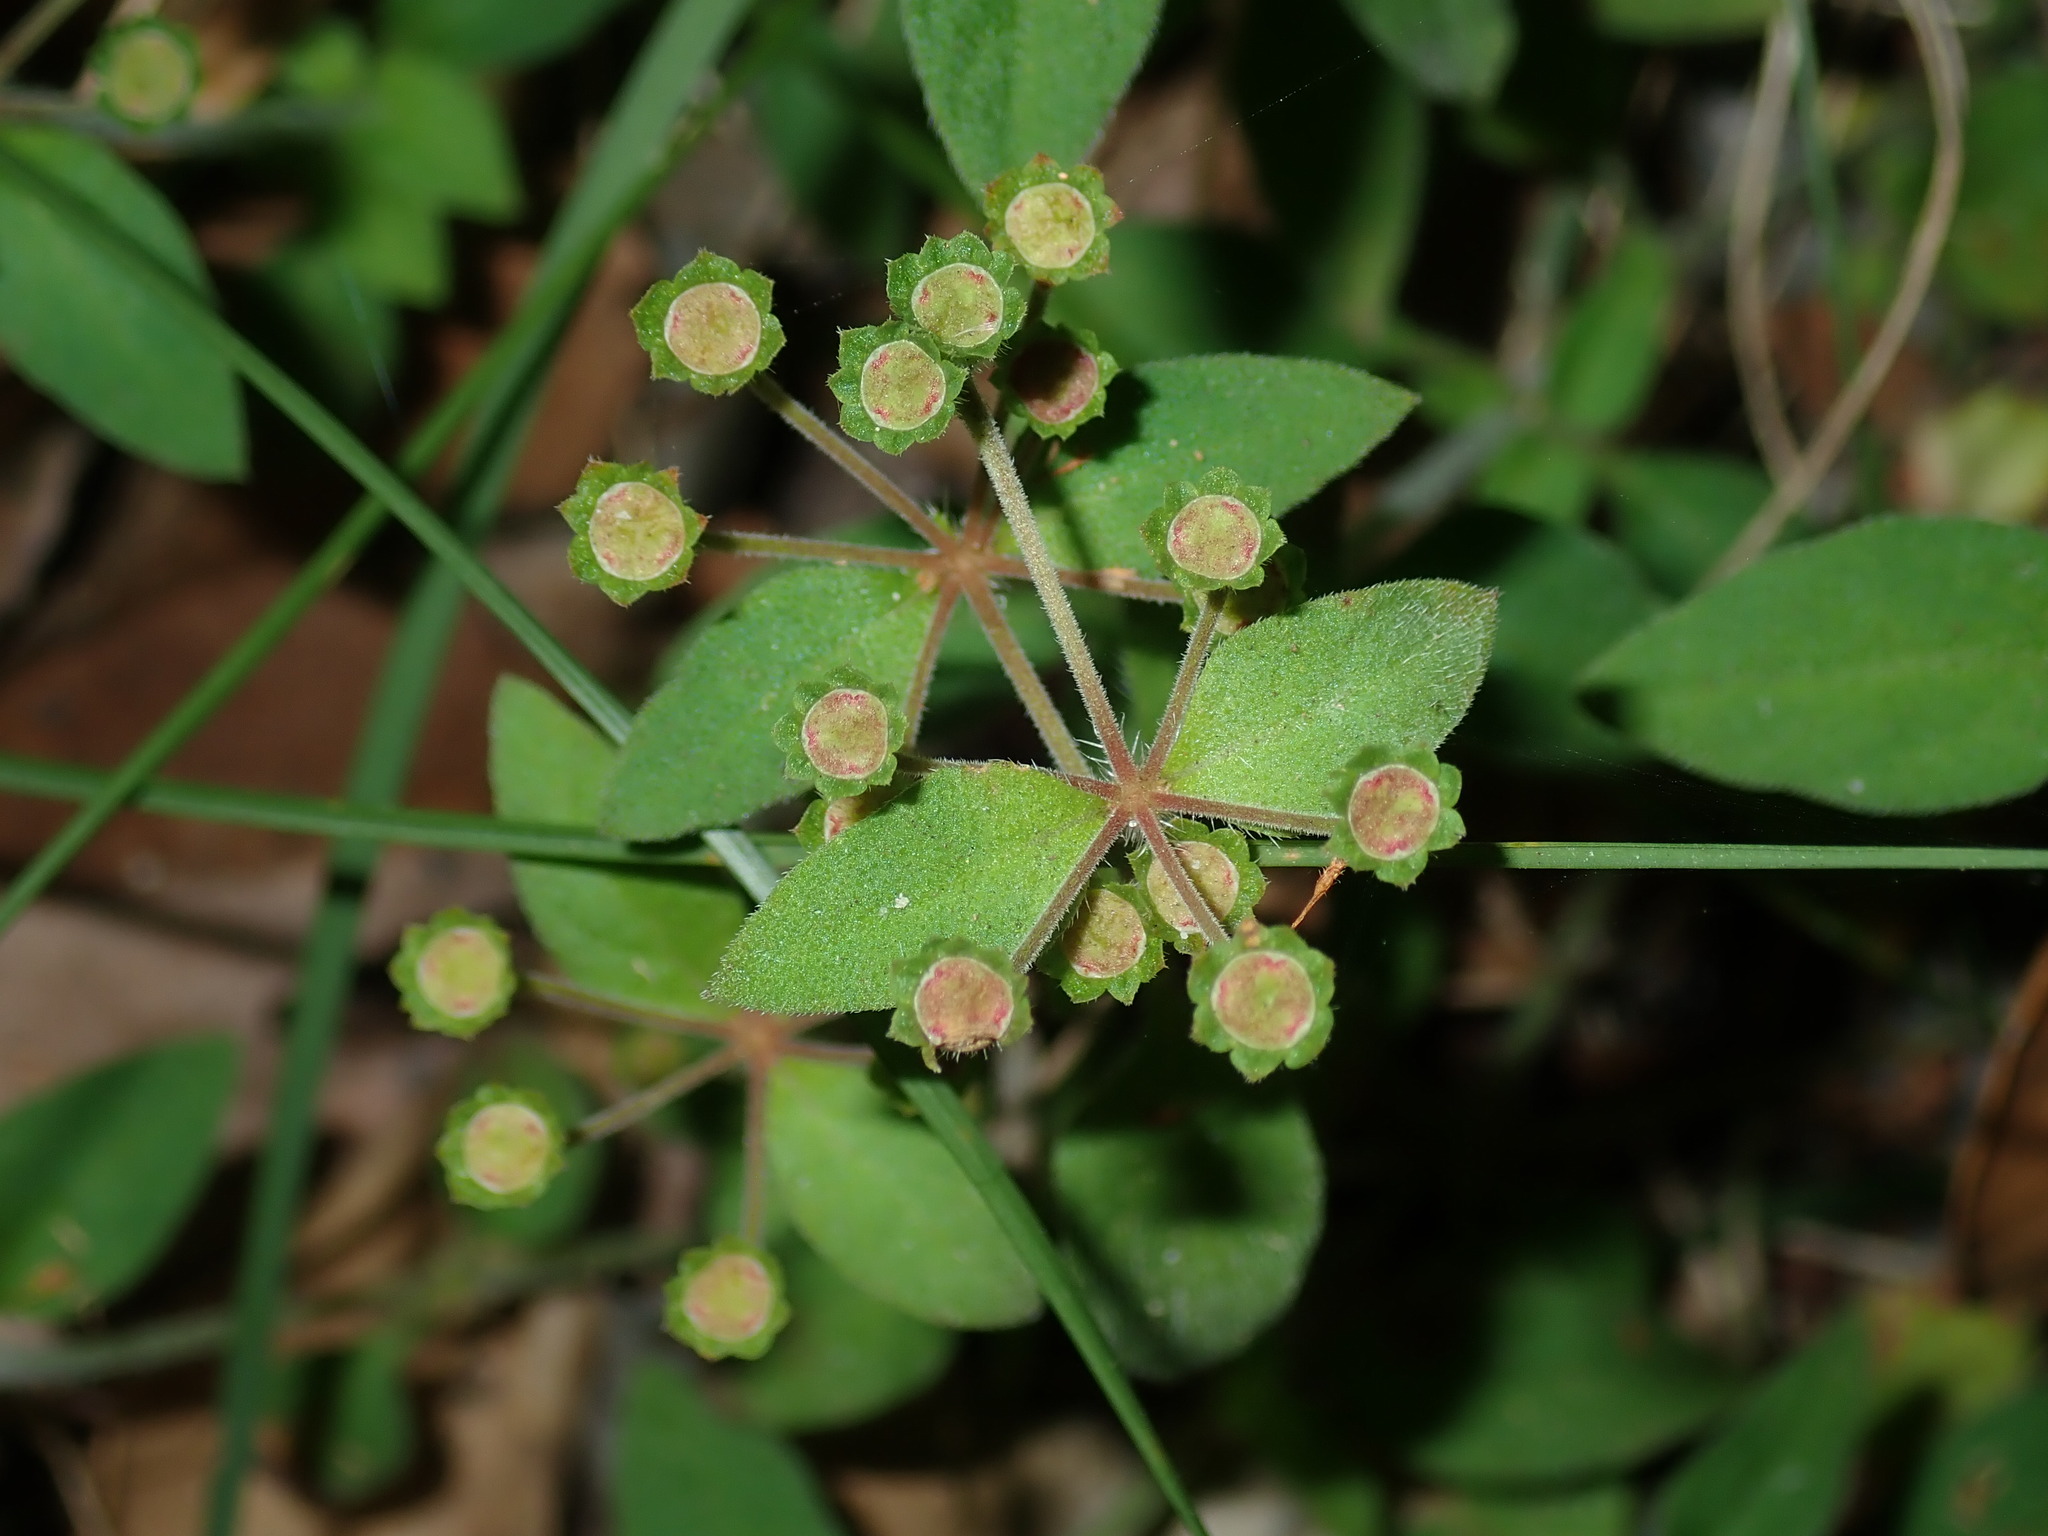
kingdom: Plantae
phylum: Tracheophyta
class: Magnoliopsida
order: Gentianales
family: Rubiaceae
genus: Pomax
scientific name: Pomax umbellata
